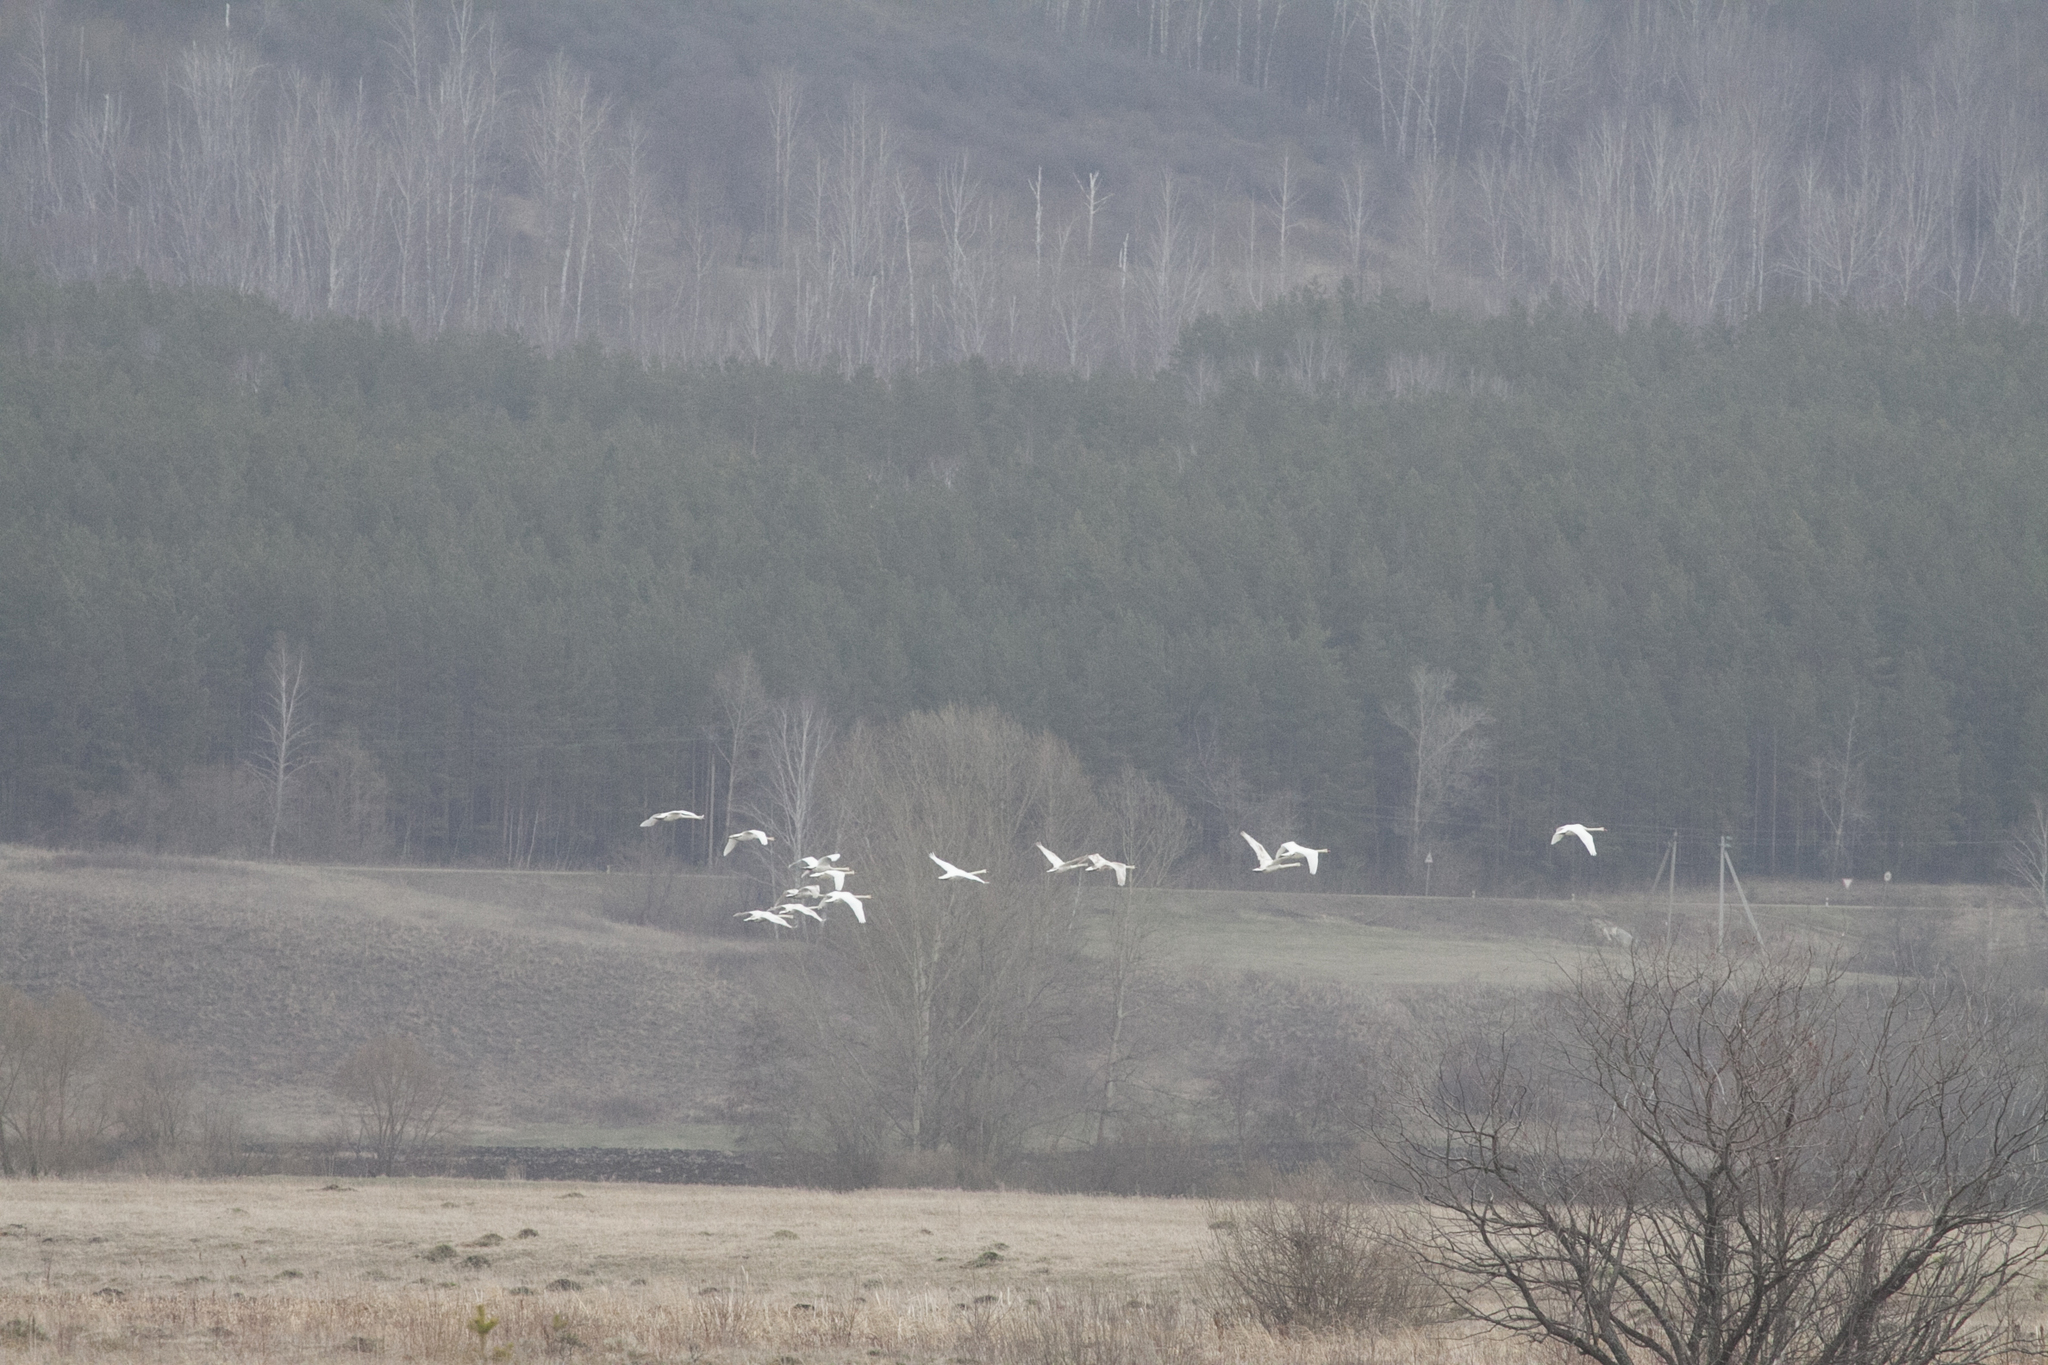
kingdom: Animalia
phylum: Chordata
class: Aves
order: Anseriformes
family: Anatidae
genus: Cygnus
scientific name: Cygnus olor
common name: Mute swan
